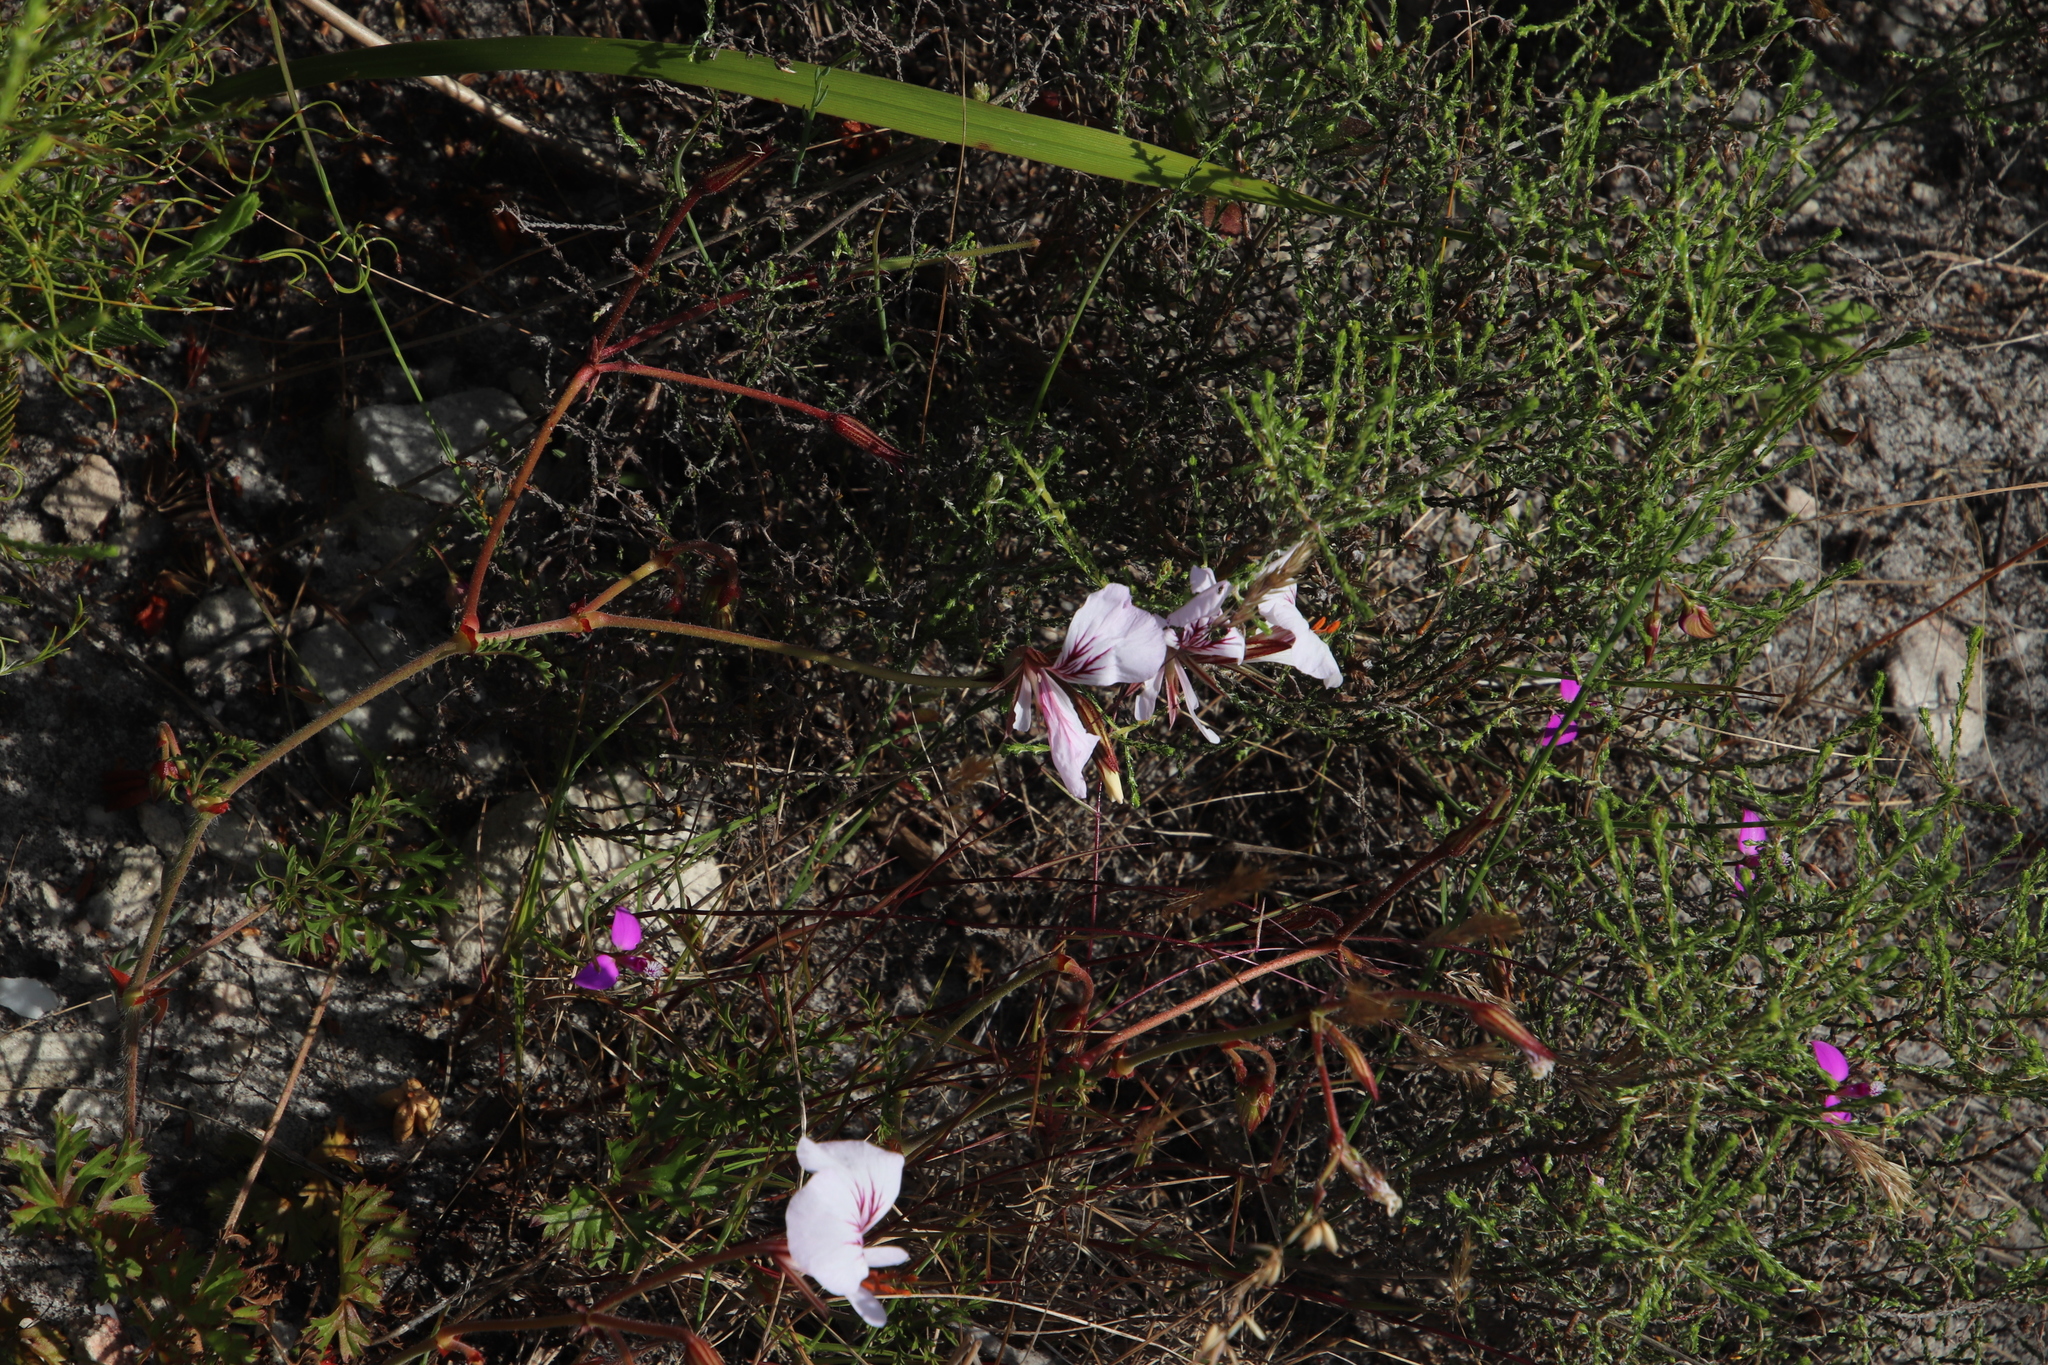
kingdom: Plantae
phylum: Tracheophyta
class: Magnoliopsida
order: Geraniales
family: Geraniaceae
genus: Pelargonium
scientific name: Pelargonium longicaule
